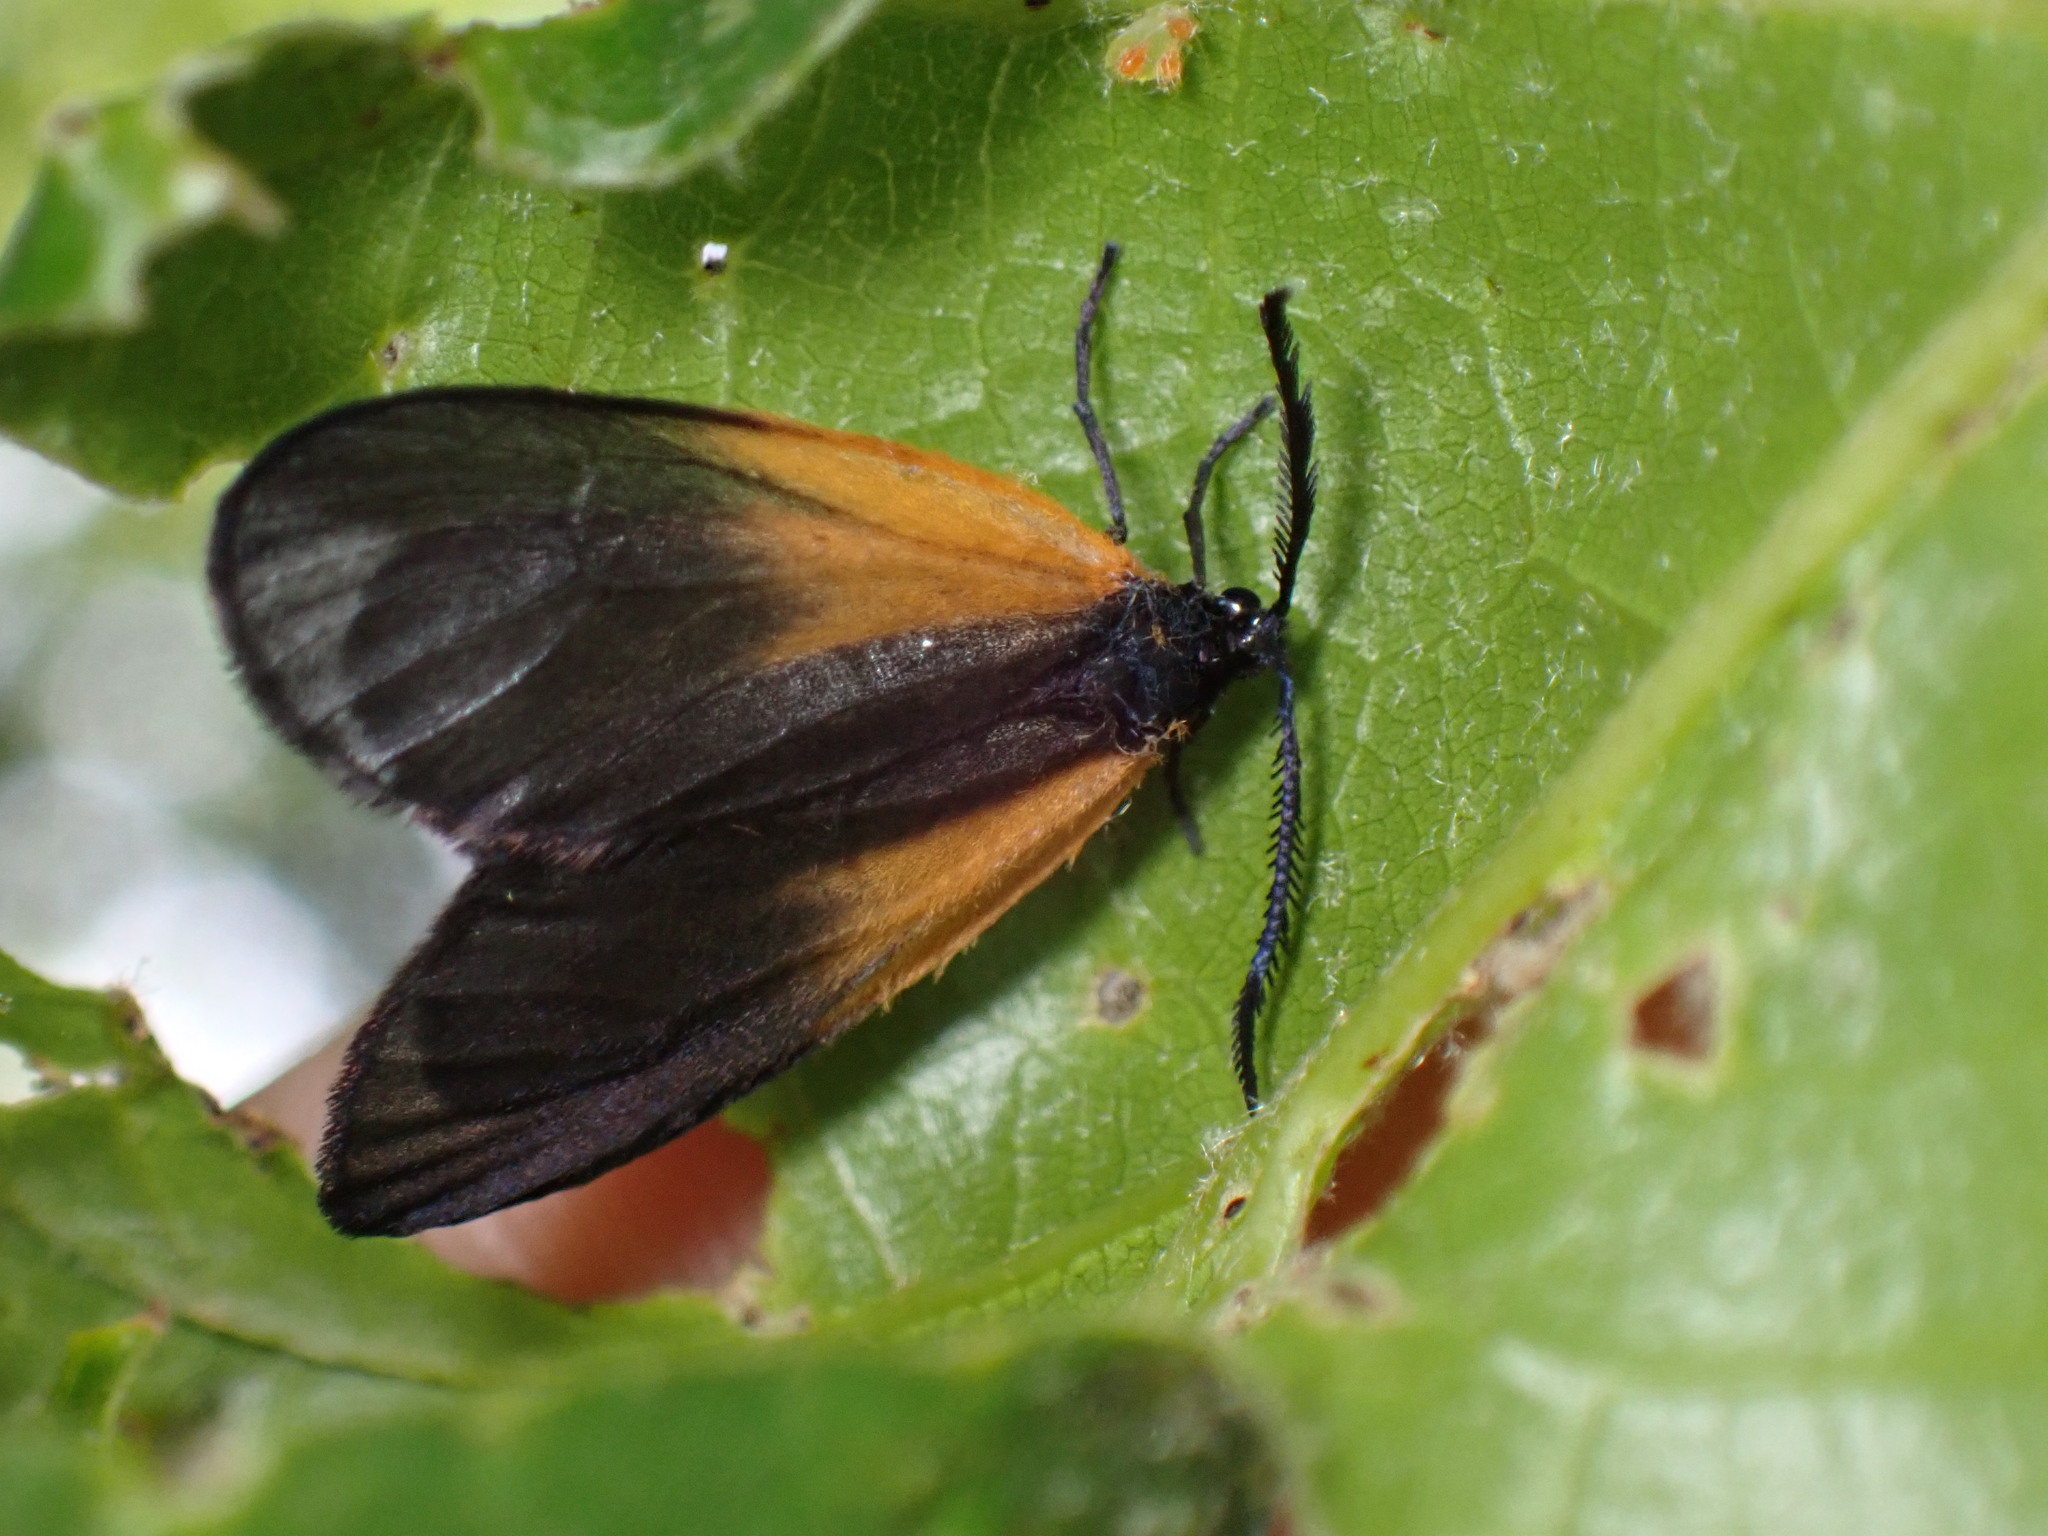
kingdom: Animalia
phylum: Arthropoda
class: Insecta
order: Lepidoptera
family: Zygaenidae
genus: Malthaca
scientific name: Malthaca dimidiata
